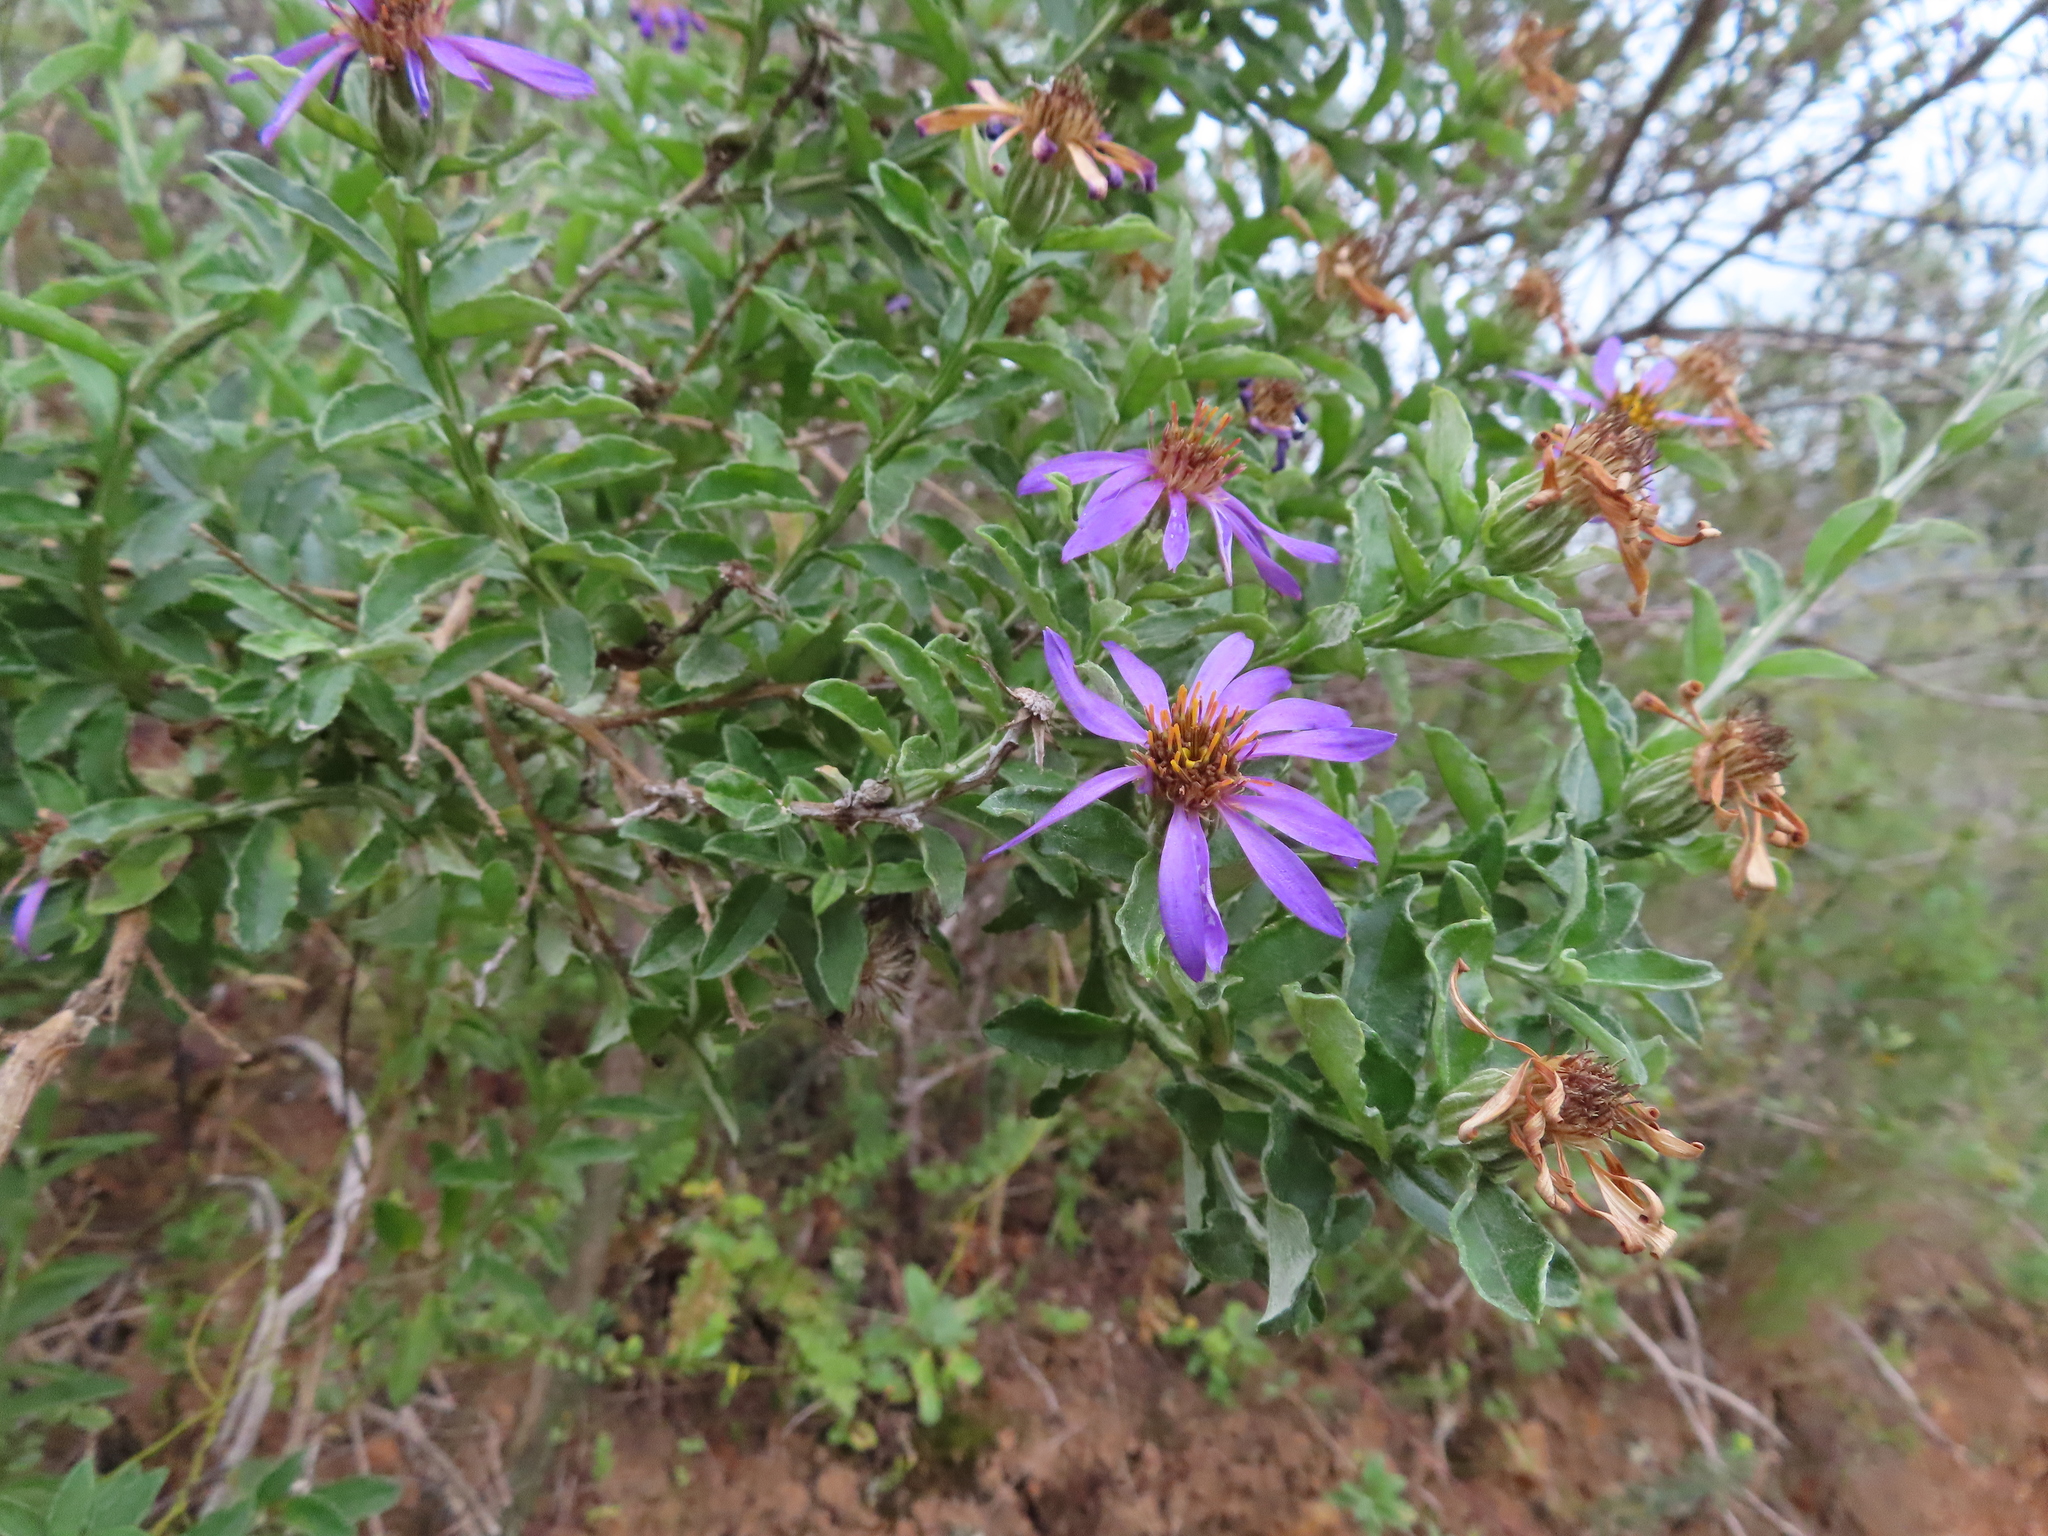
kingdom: Plantae
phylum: Tracheophyta
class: Magnoliopsida
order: Asterales
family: Asteraceae
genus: Printzia
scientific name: Printzia polifolia
